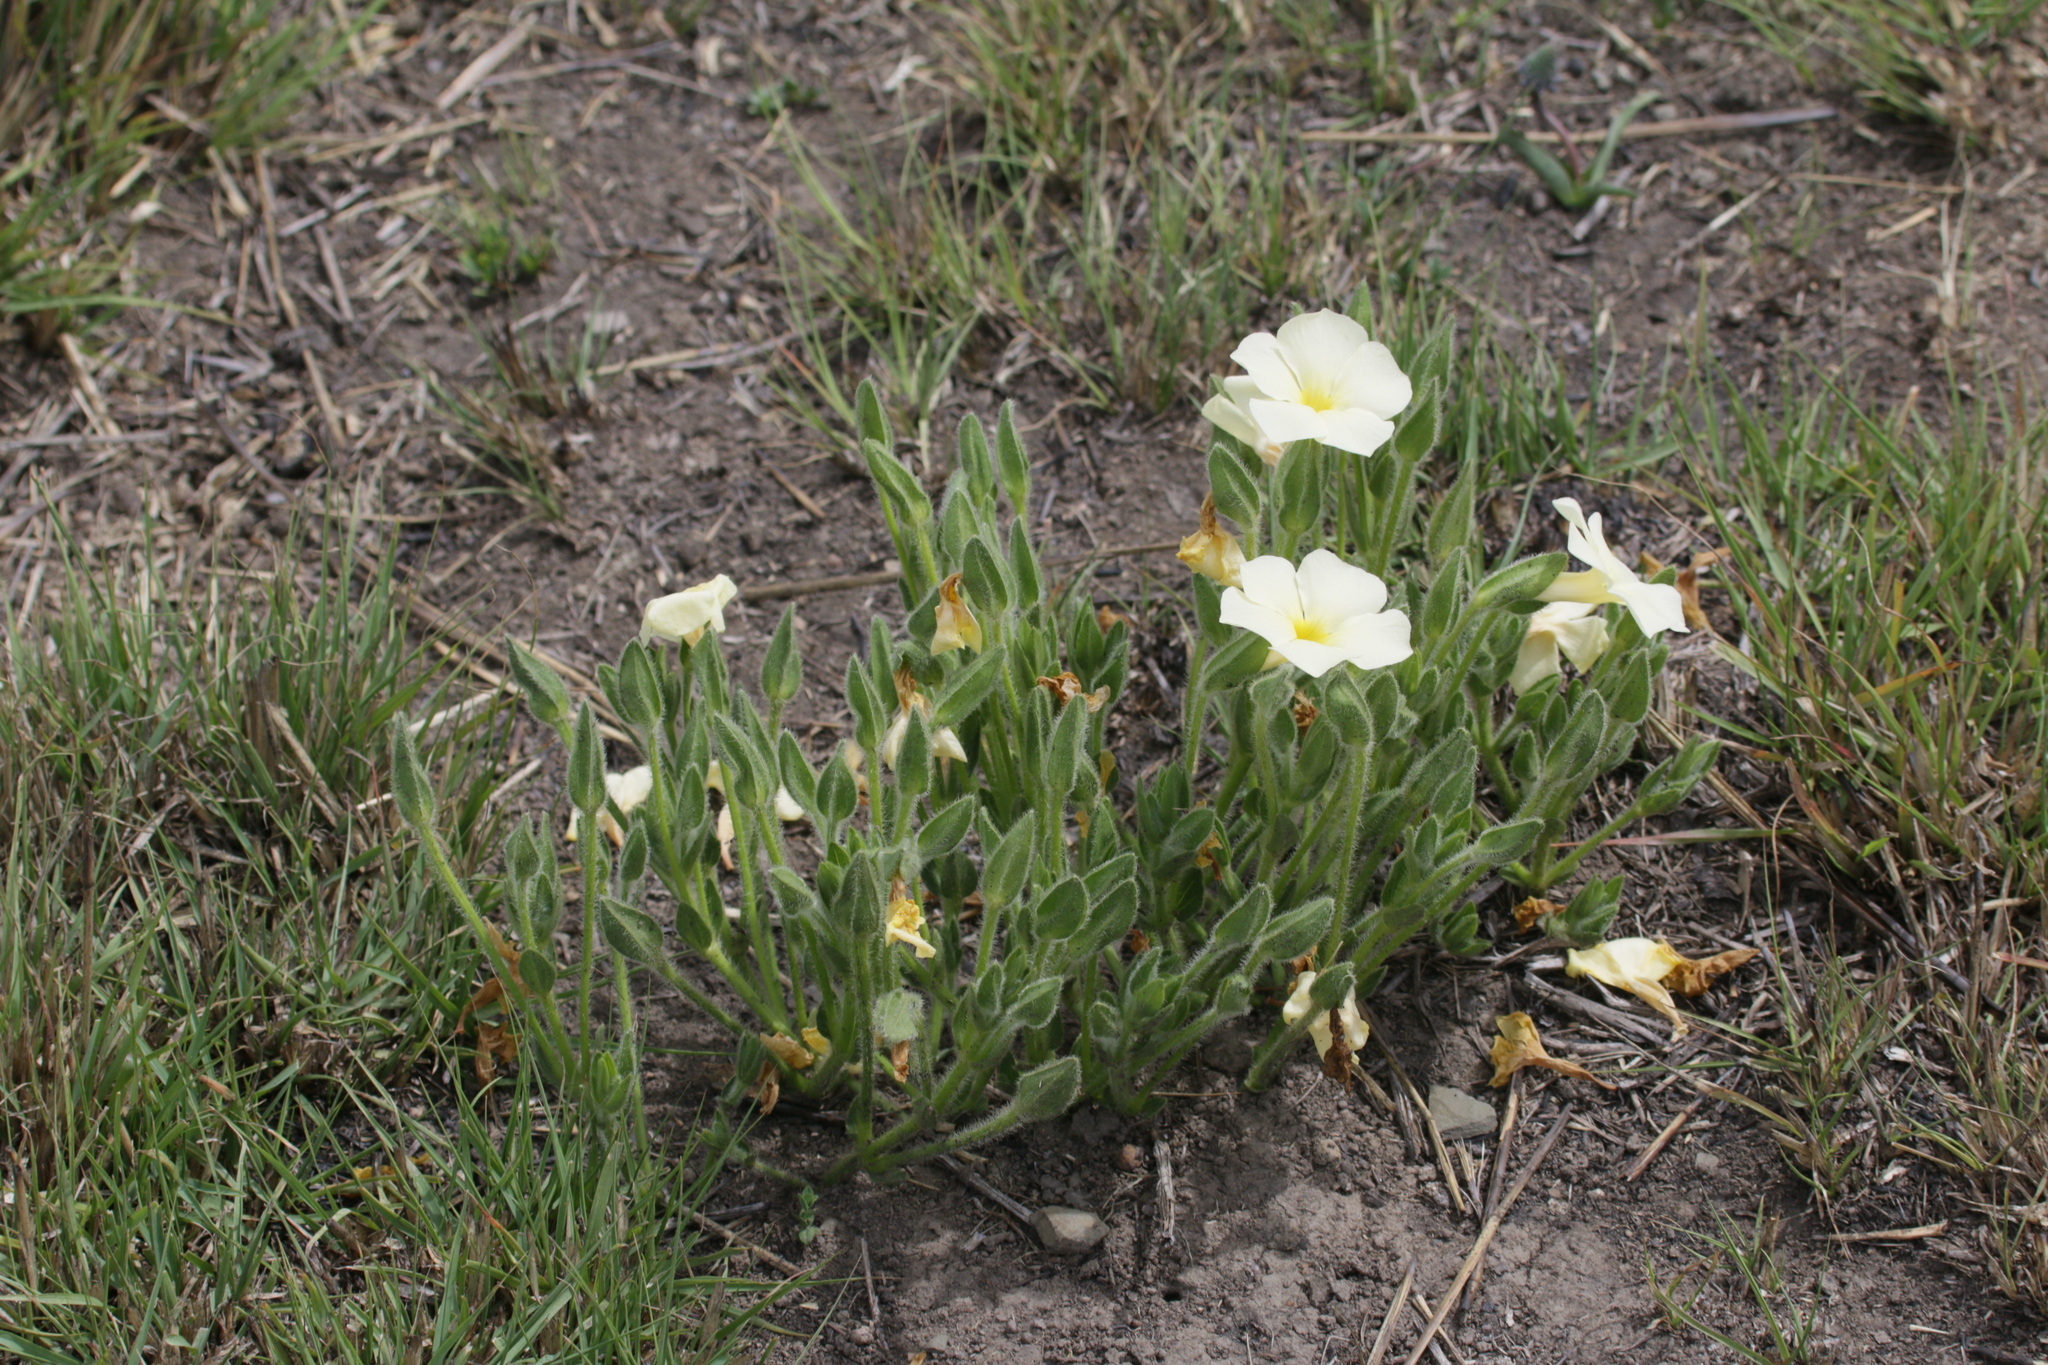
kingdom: Plantae
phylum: Tracheophyta
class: Magnoliopsida
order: Lamiales
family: Acanthaceae
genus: Thunbergia
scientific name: Thunbergia atriplicifolia
